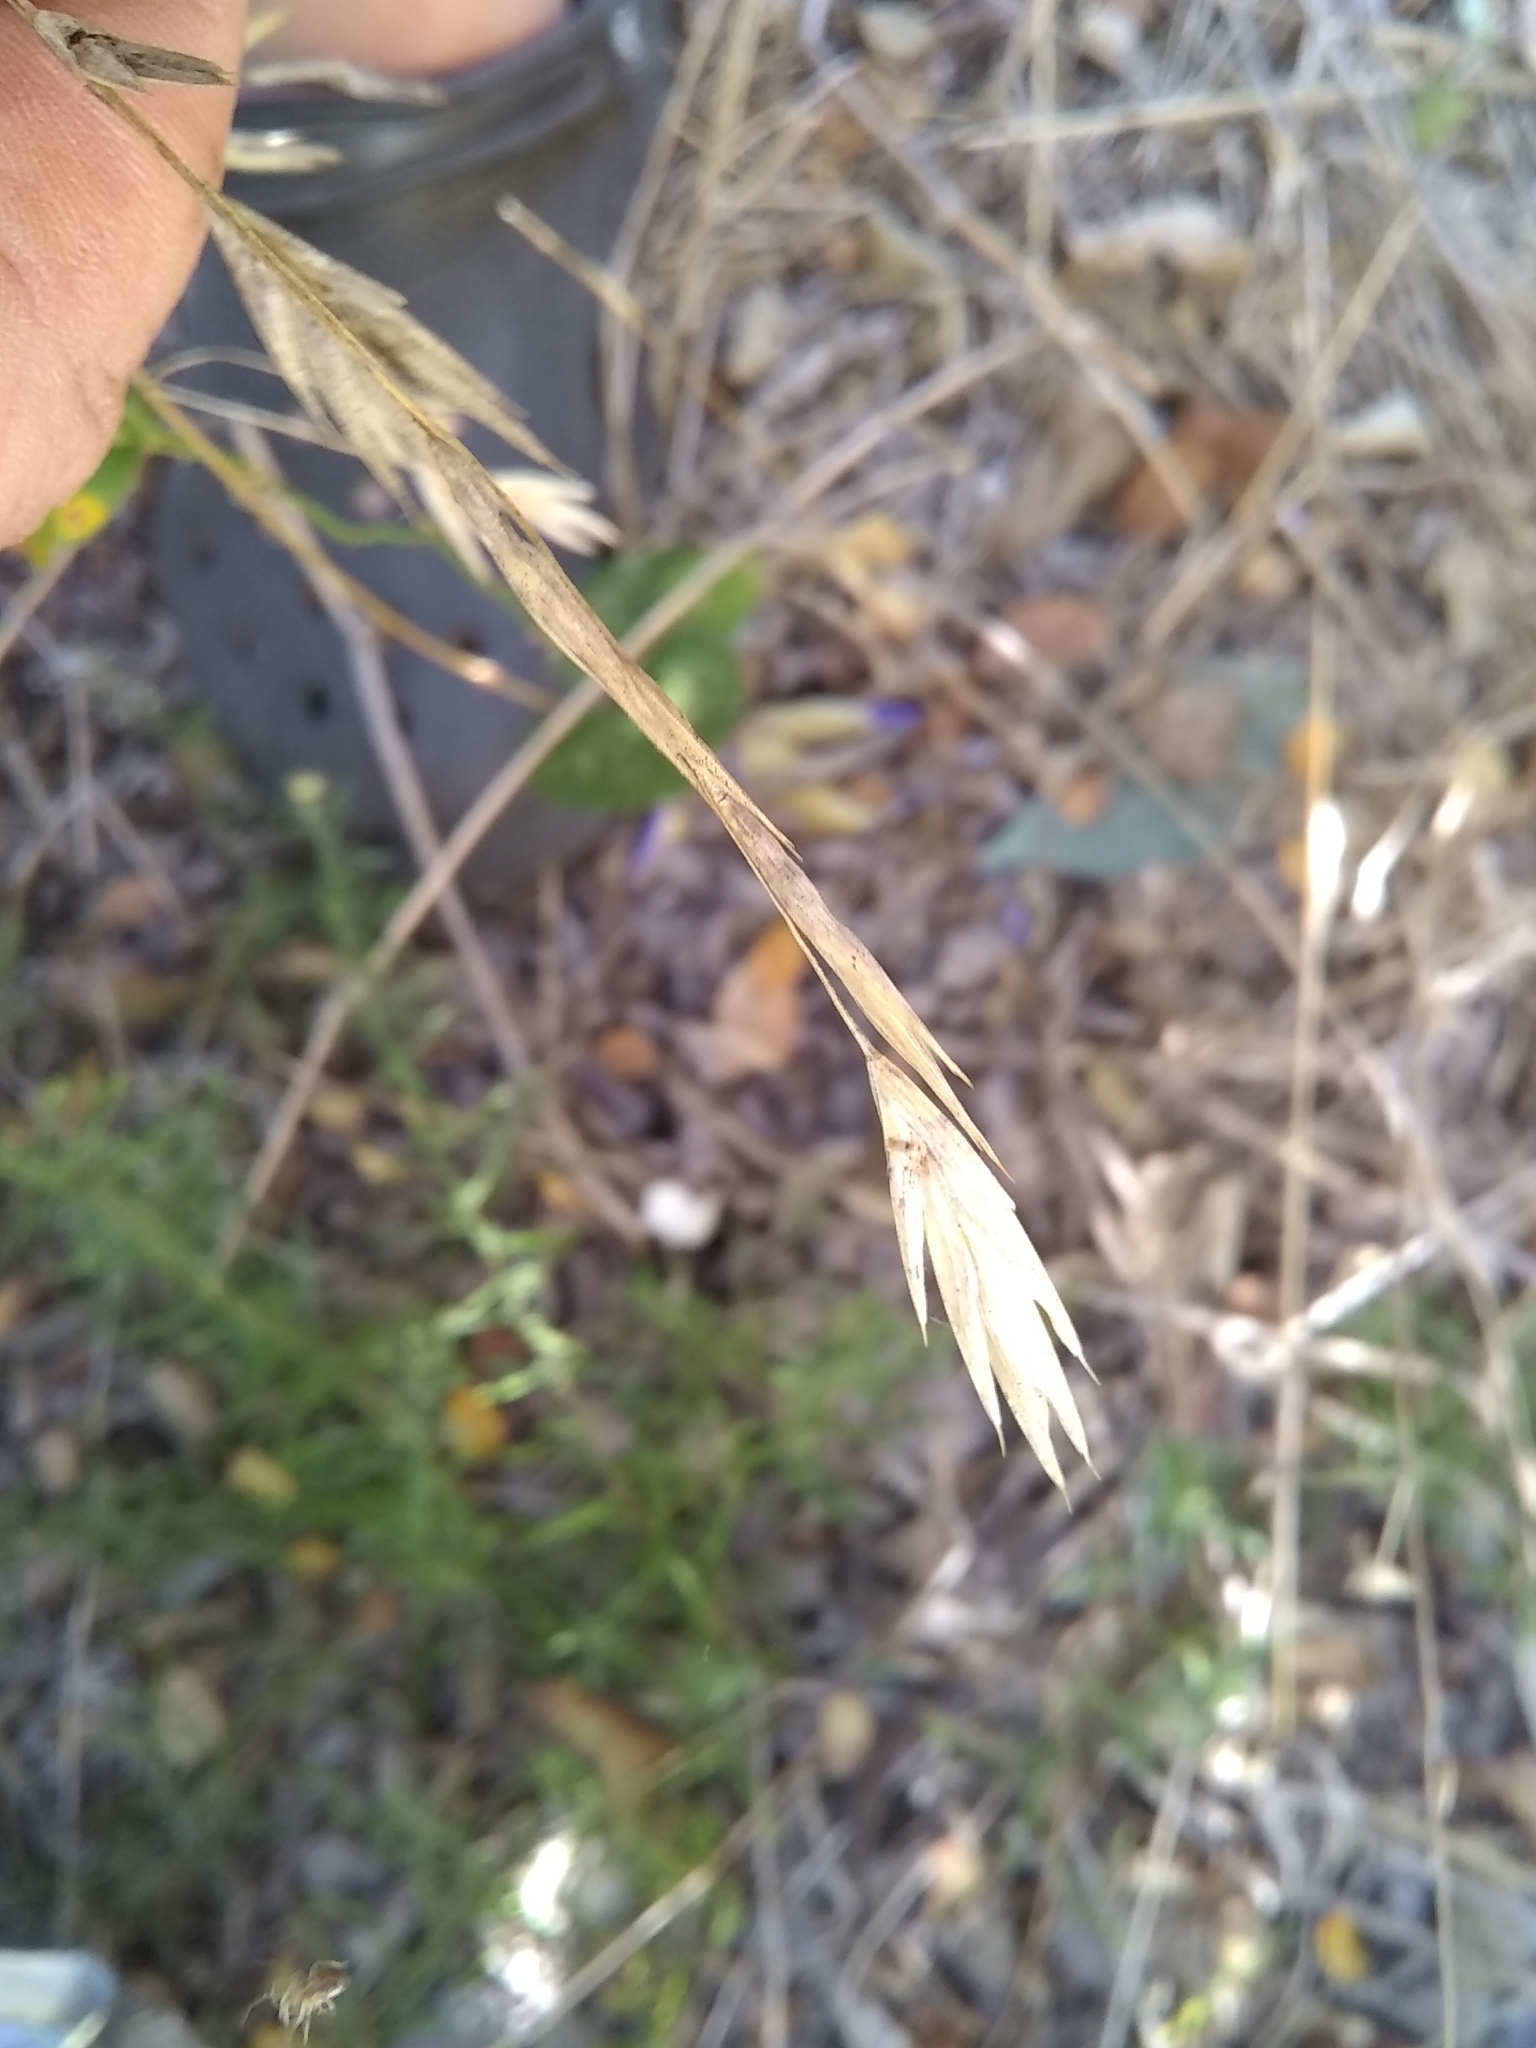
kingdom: Plantae
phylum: Tracheophyta
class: Liliopsida
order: Poales
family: Poaceae
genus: Bromus
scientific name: Bromus catharticus
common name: Rescuegrass
